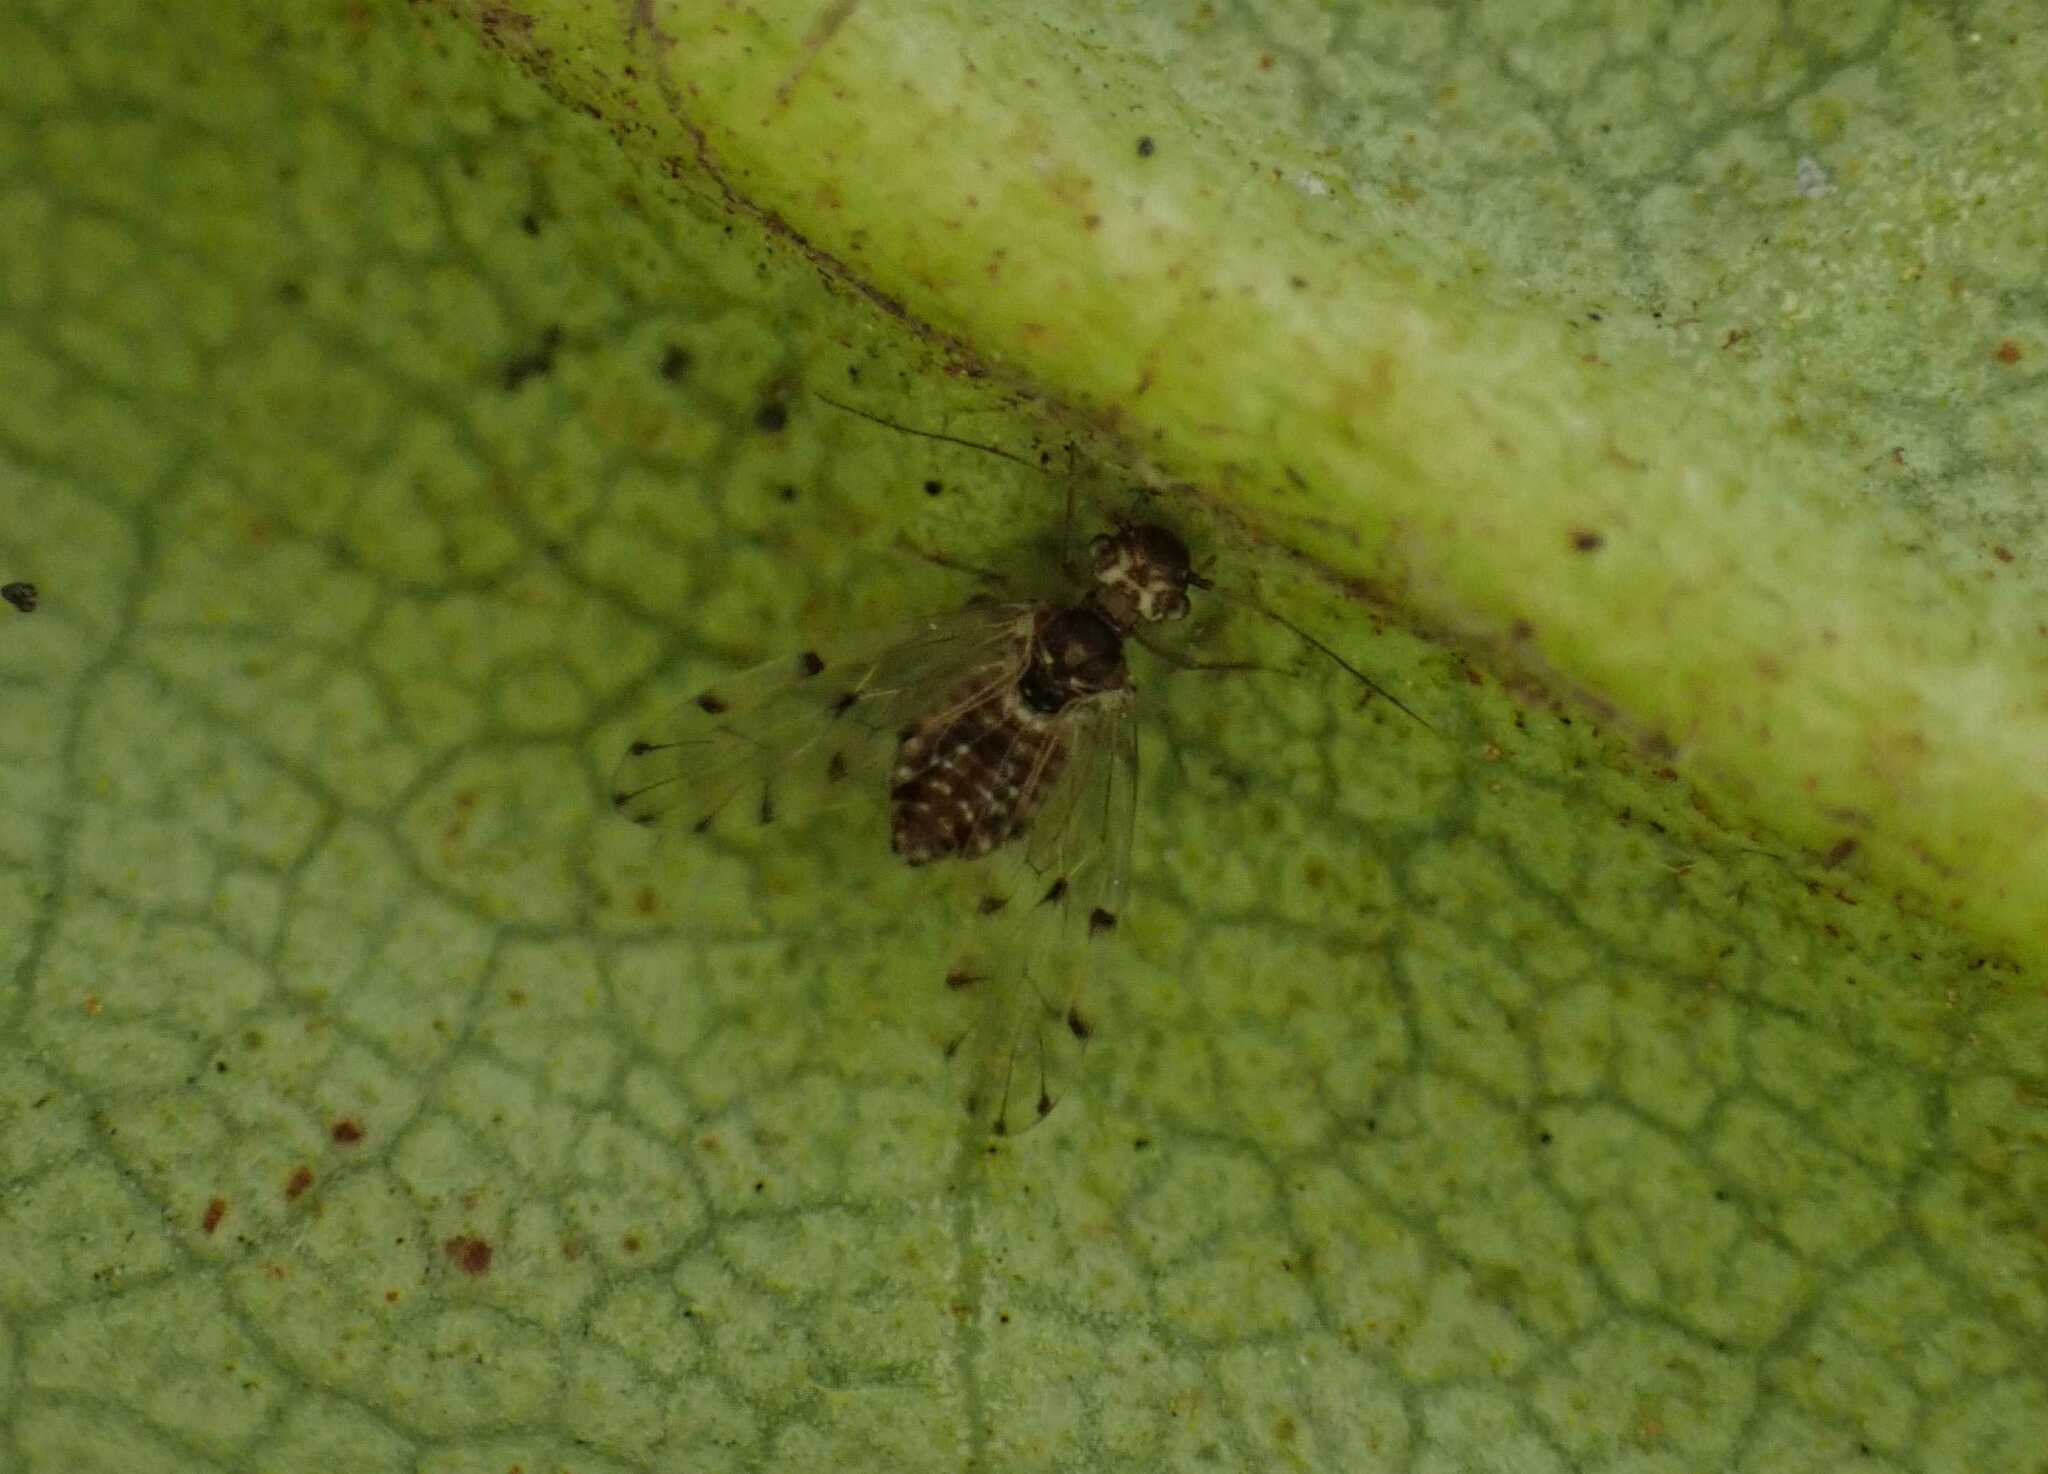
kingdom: Animalia
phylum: Arthropoda
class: Insecta
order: Psocodea
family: Ectopsocidae
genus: Ectopsocus
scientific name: Ectopsocus petersi
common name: Medium-sized bark louse
